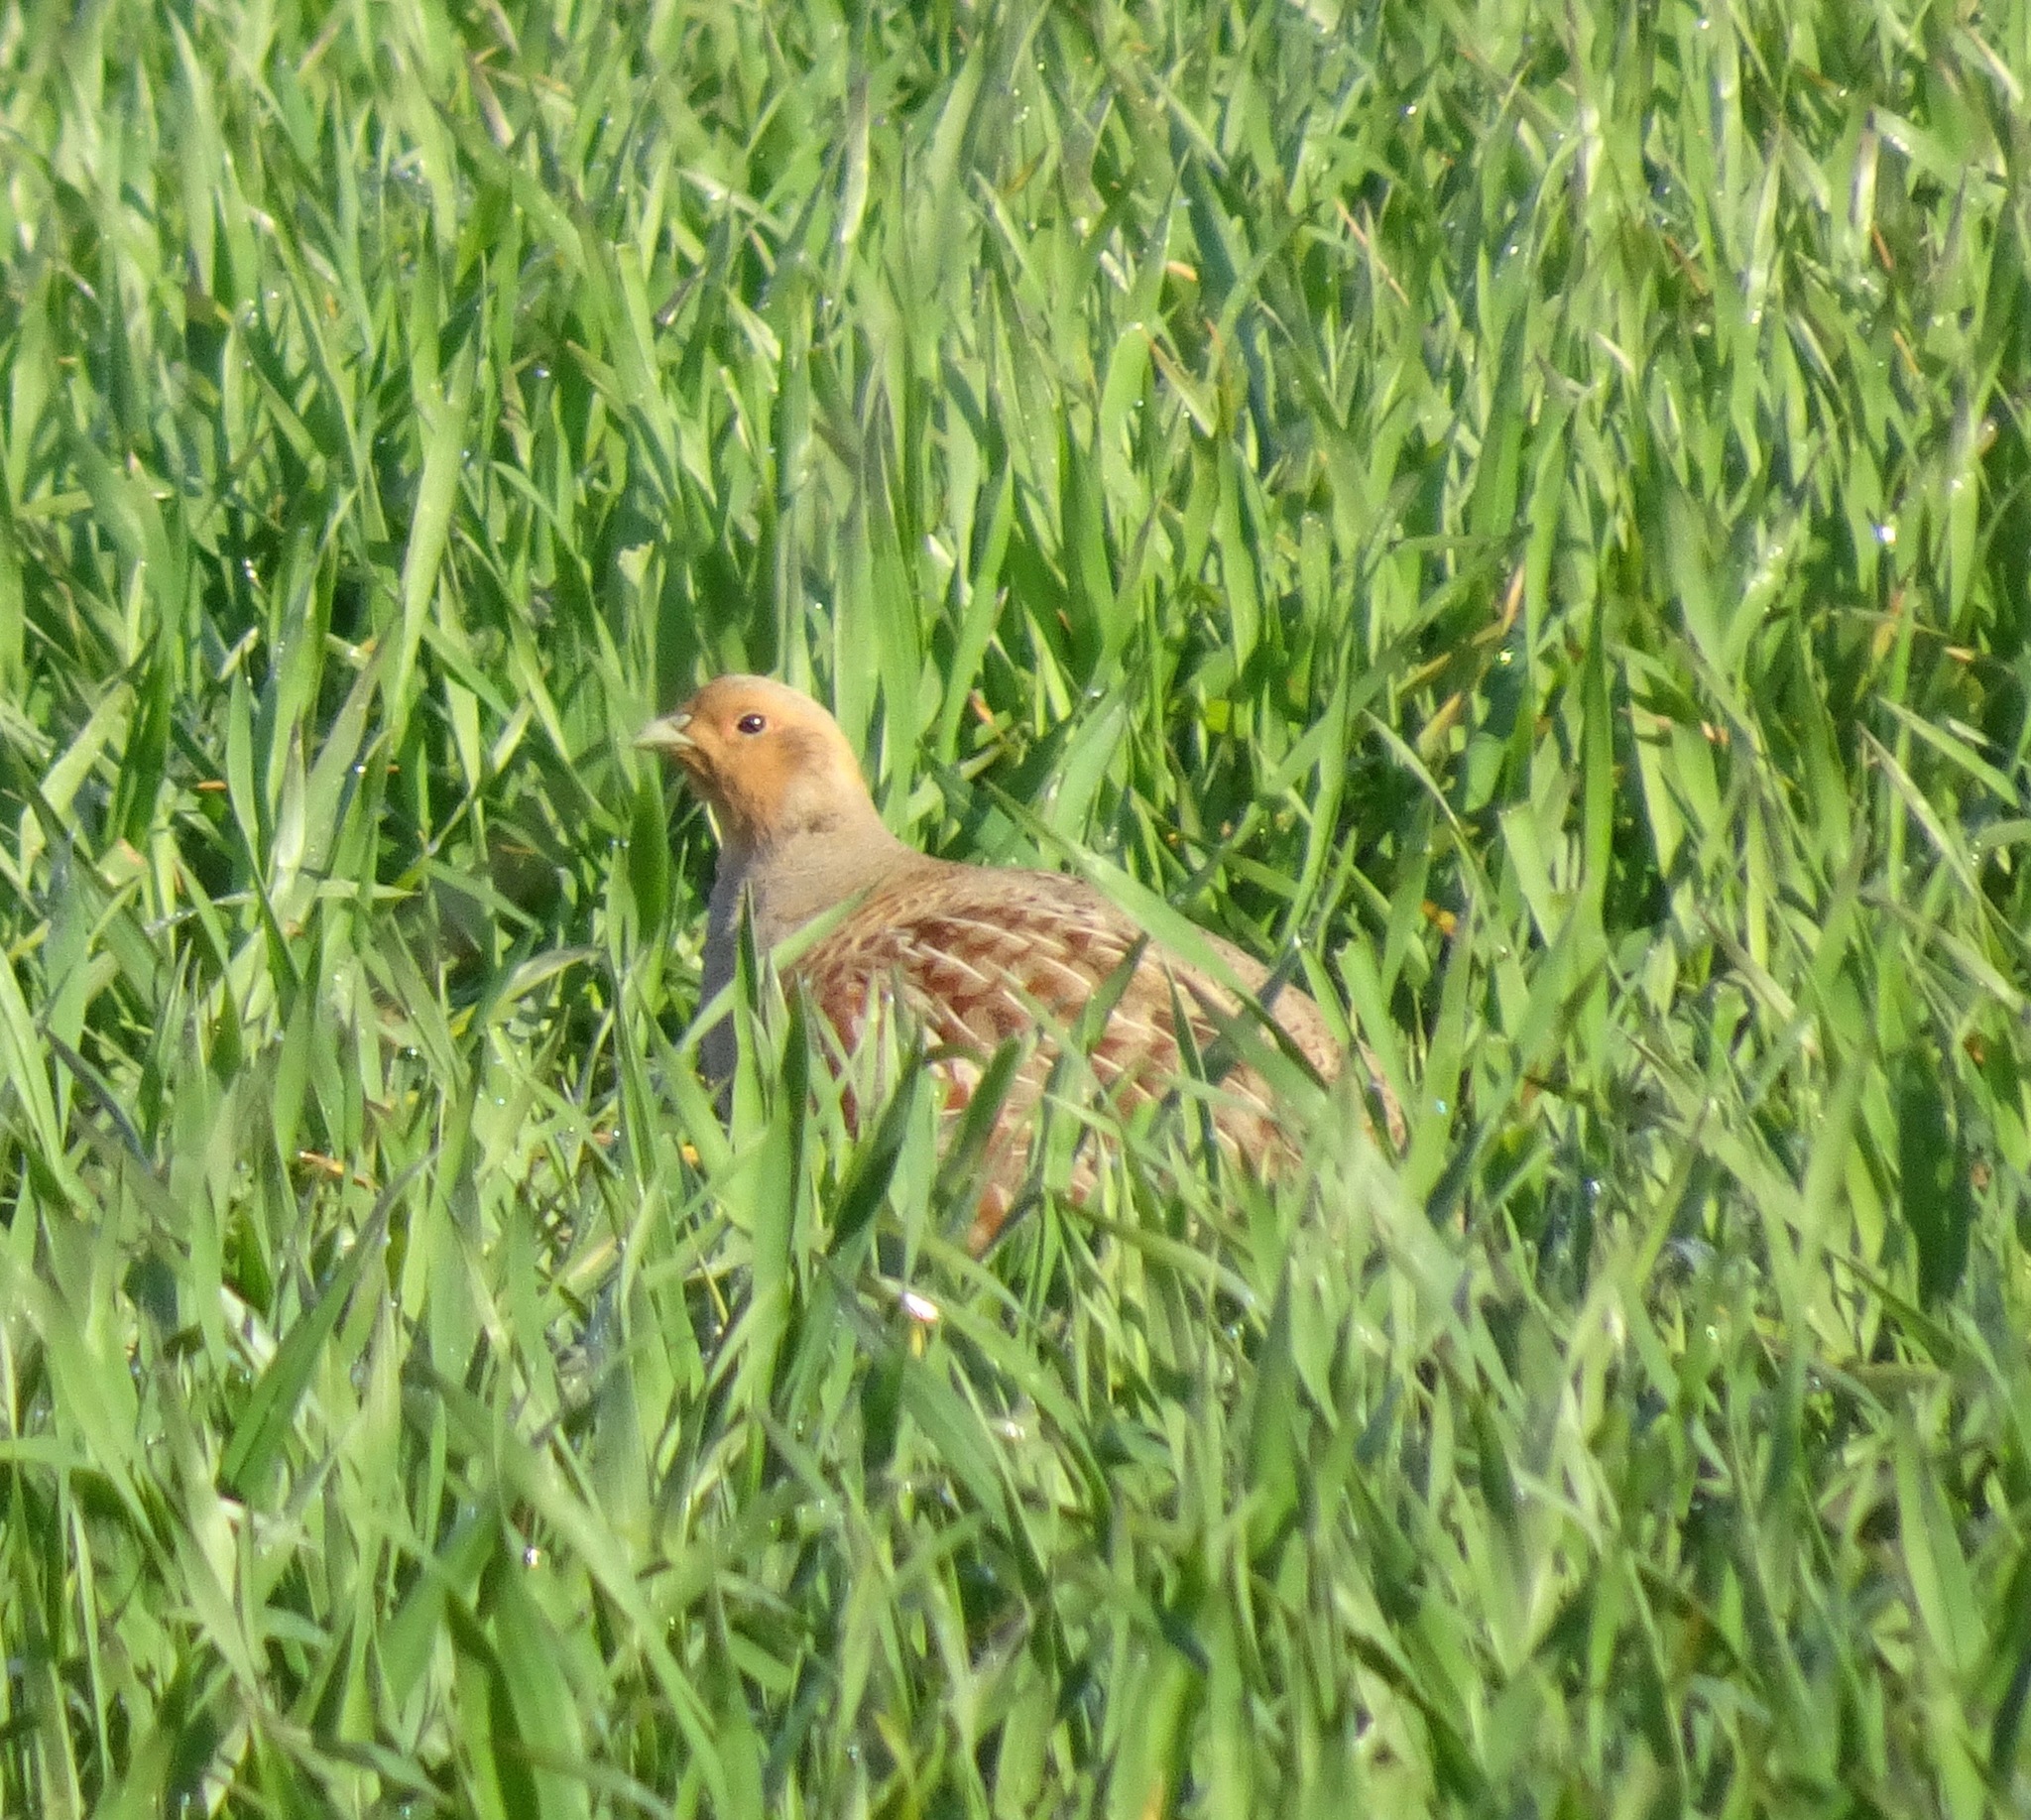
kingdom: Animalia
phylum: Chordata
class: Aves
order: Galliformes
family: Phasianidae
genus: Perdix
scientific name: Perdix perdix
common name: Grey partridge
